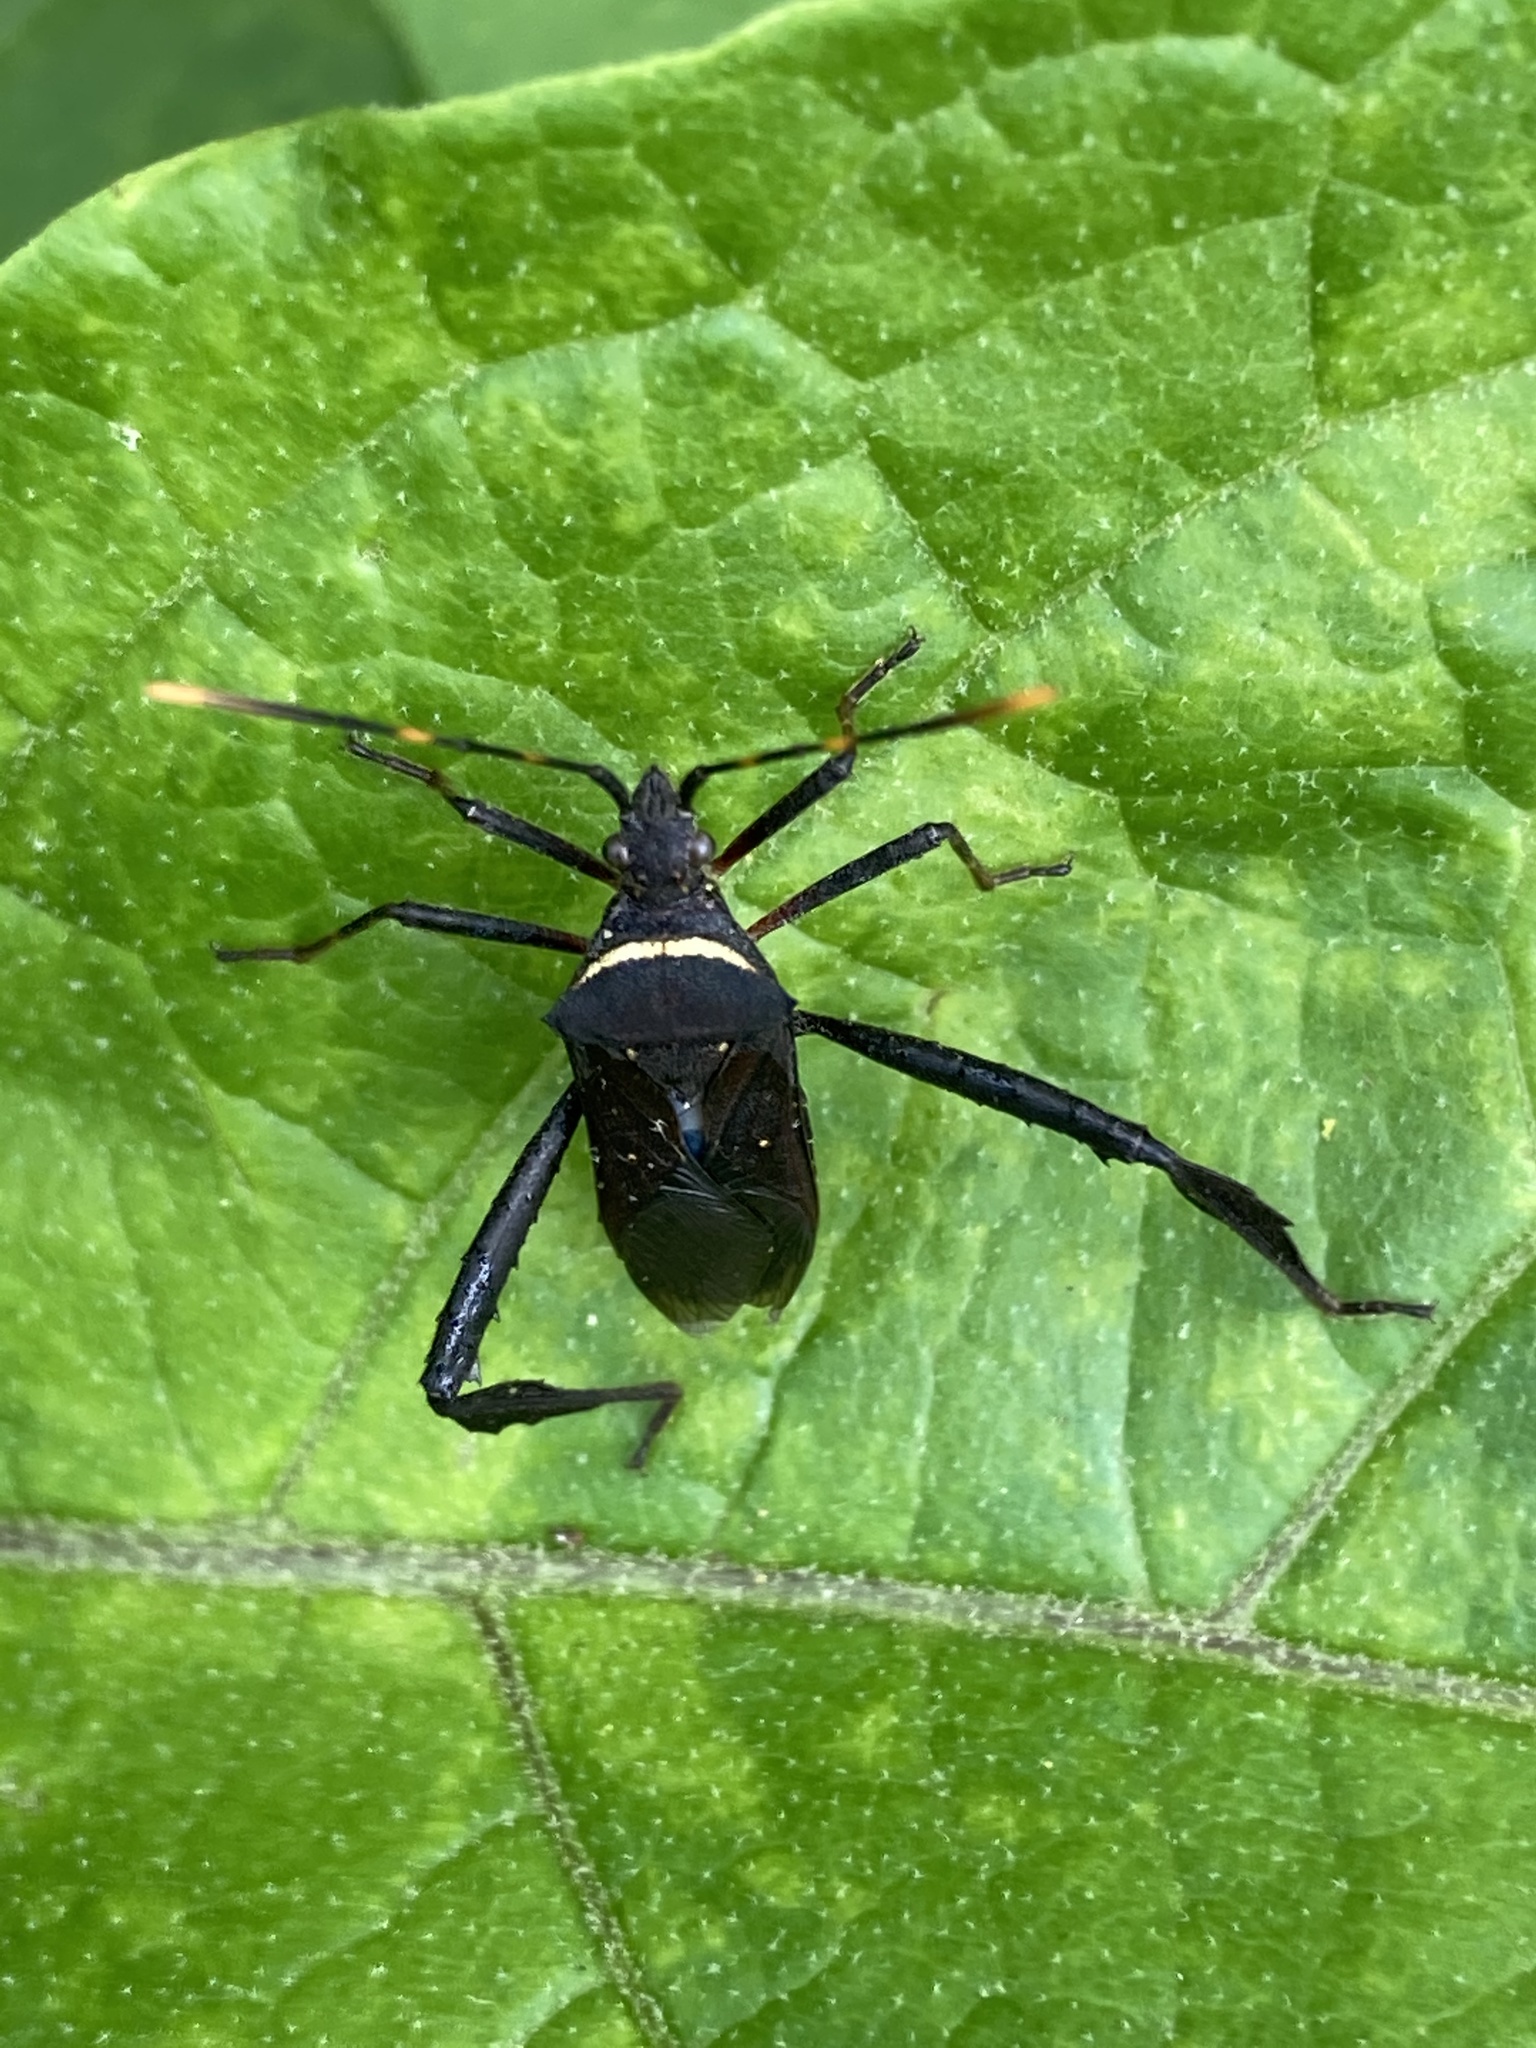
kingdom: Animalia
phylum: Arthropoda
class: Insecta
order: Hemiptera
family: Coreidae
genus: Leptoglossus
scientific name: Leptoglossus gonagra
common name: Citron bug
